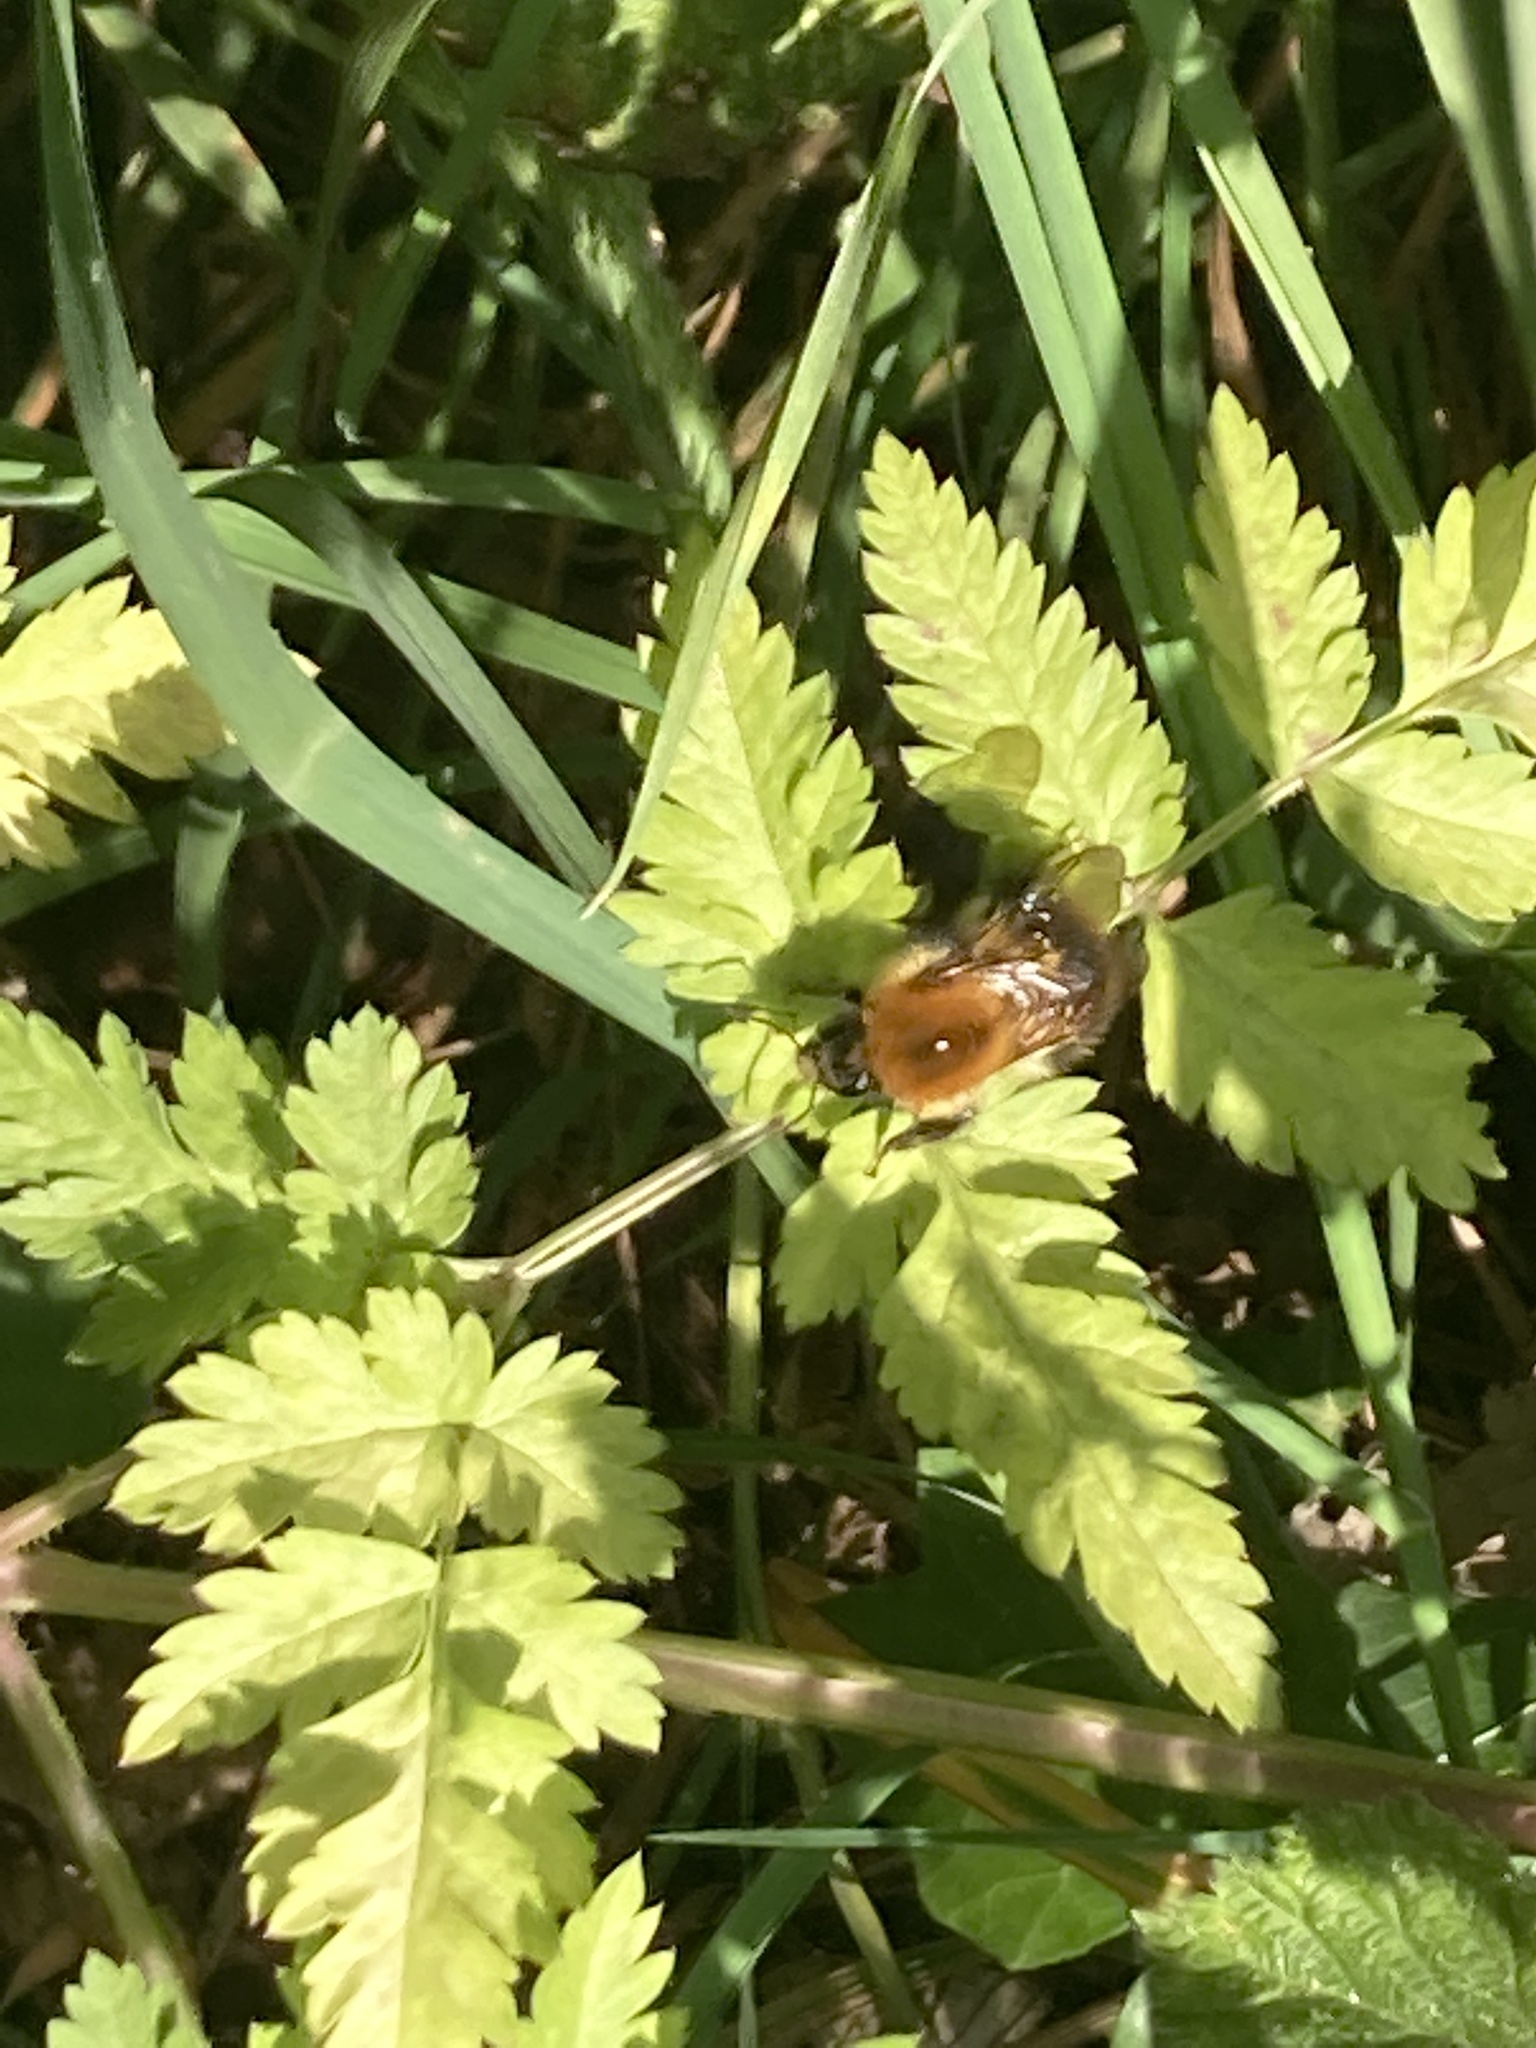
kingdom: Animalia
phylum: Arthropoda
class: Insecta
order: Hymenoptera
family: Apidae
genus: Bombus
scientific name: Bombus pascuorum
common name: Common carder bee
